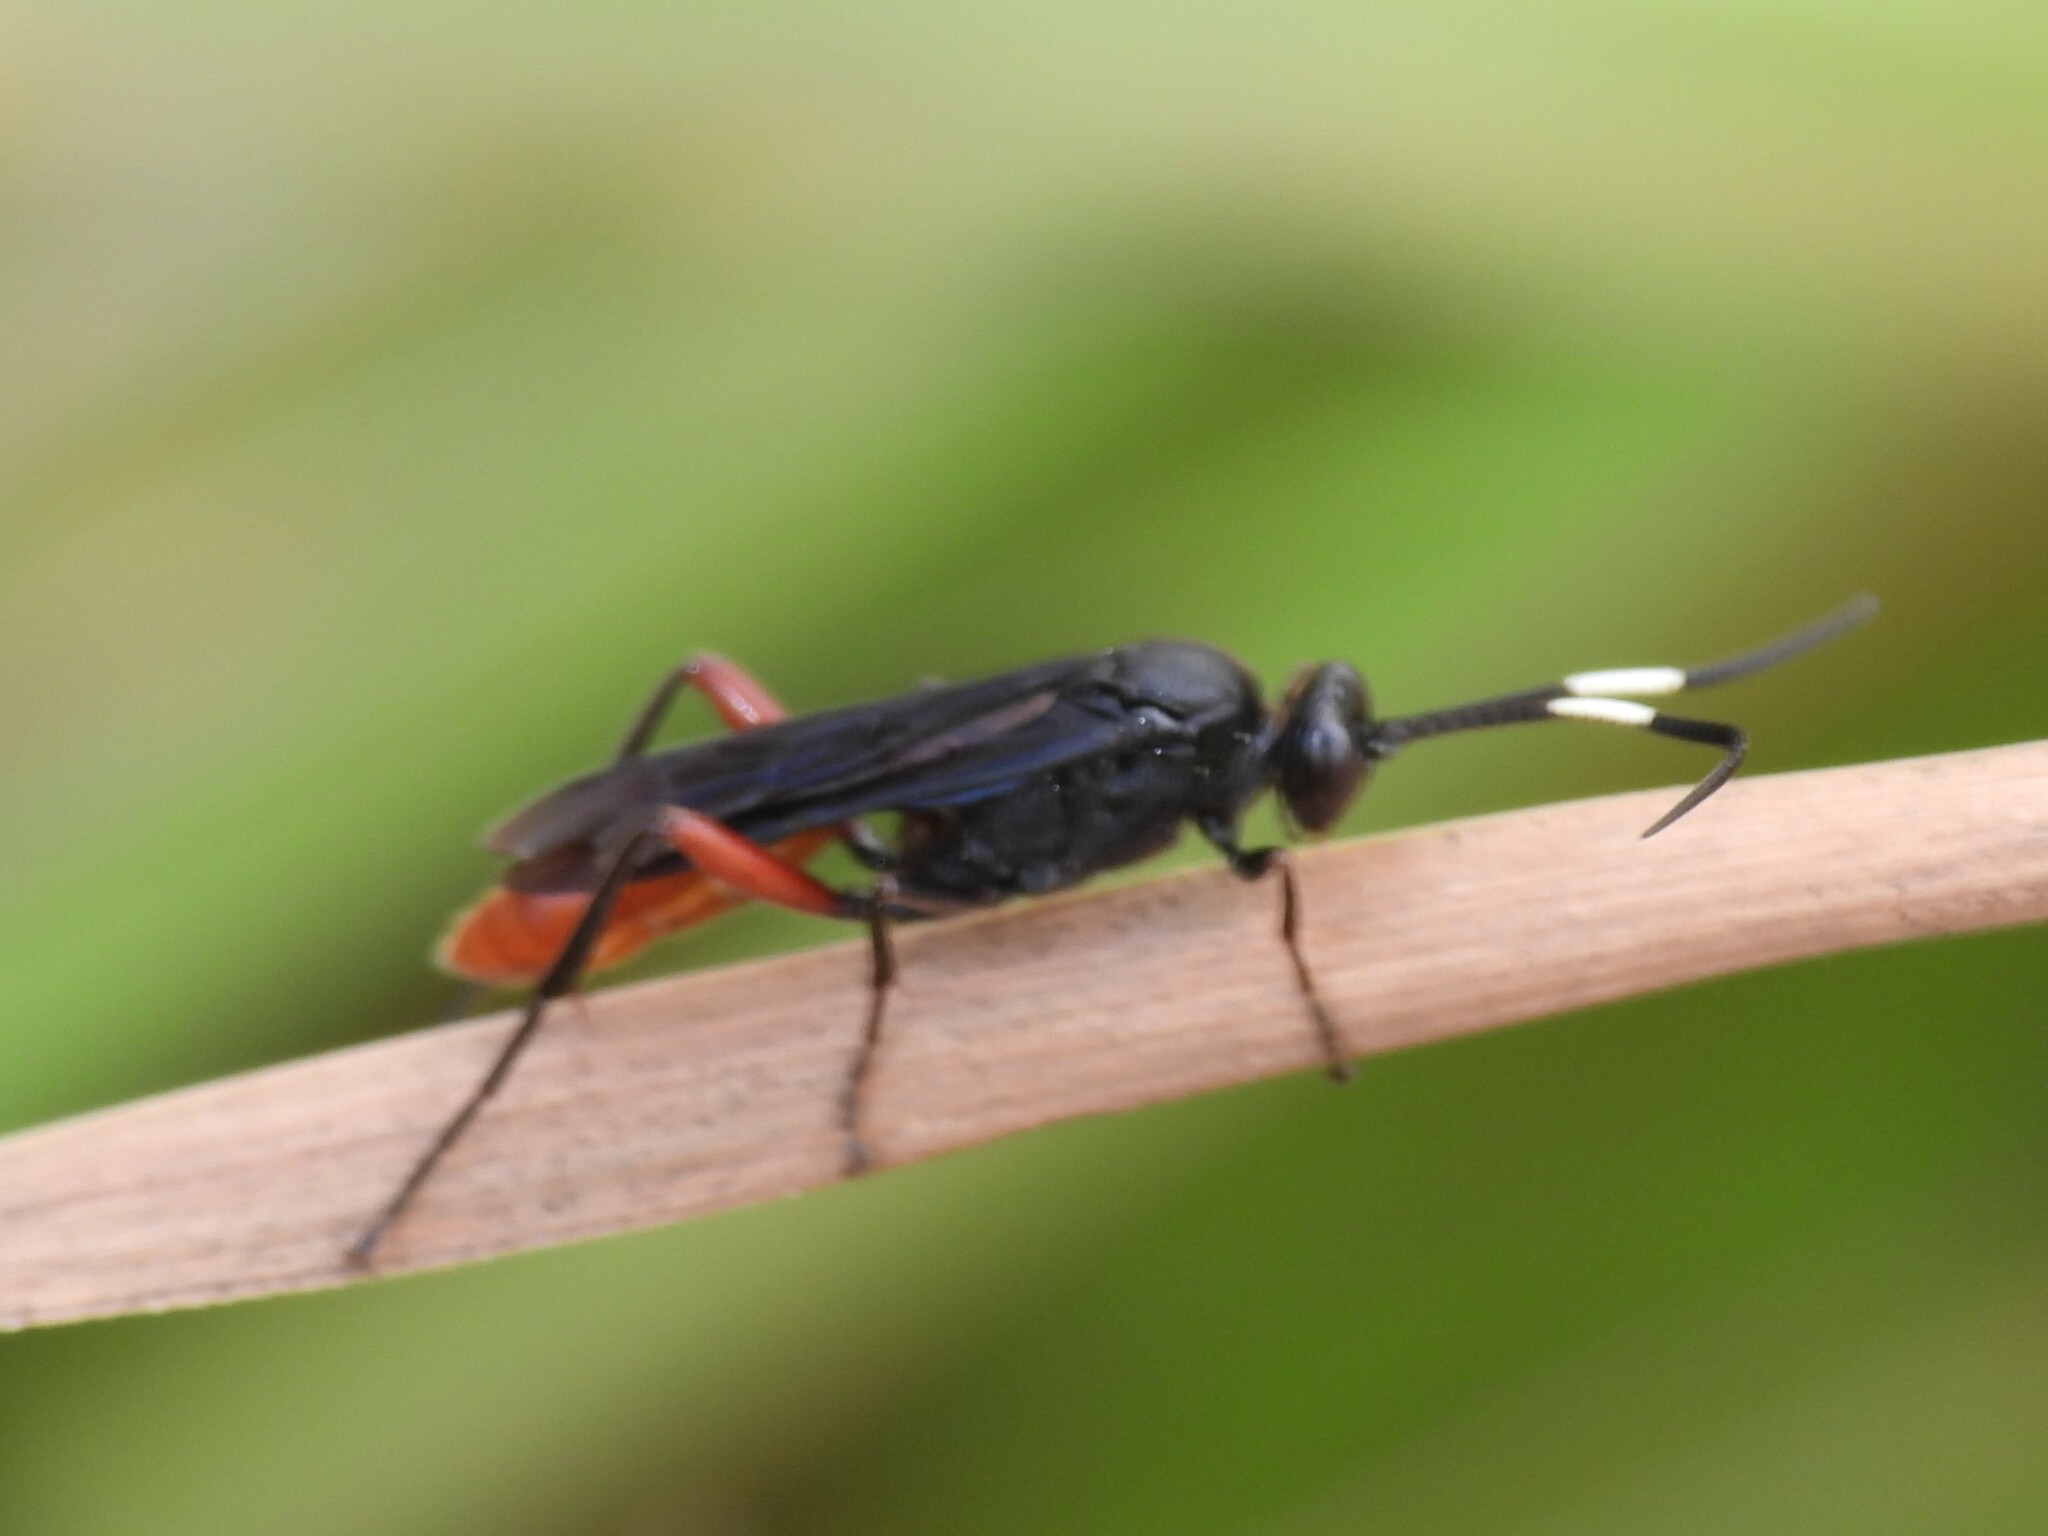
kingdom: Animalia
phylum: Arthropoda
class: Insecta
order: Hymenoptera
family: Ichneumonidae
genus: Limonethe
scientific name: Limonethe maurator
